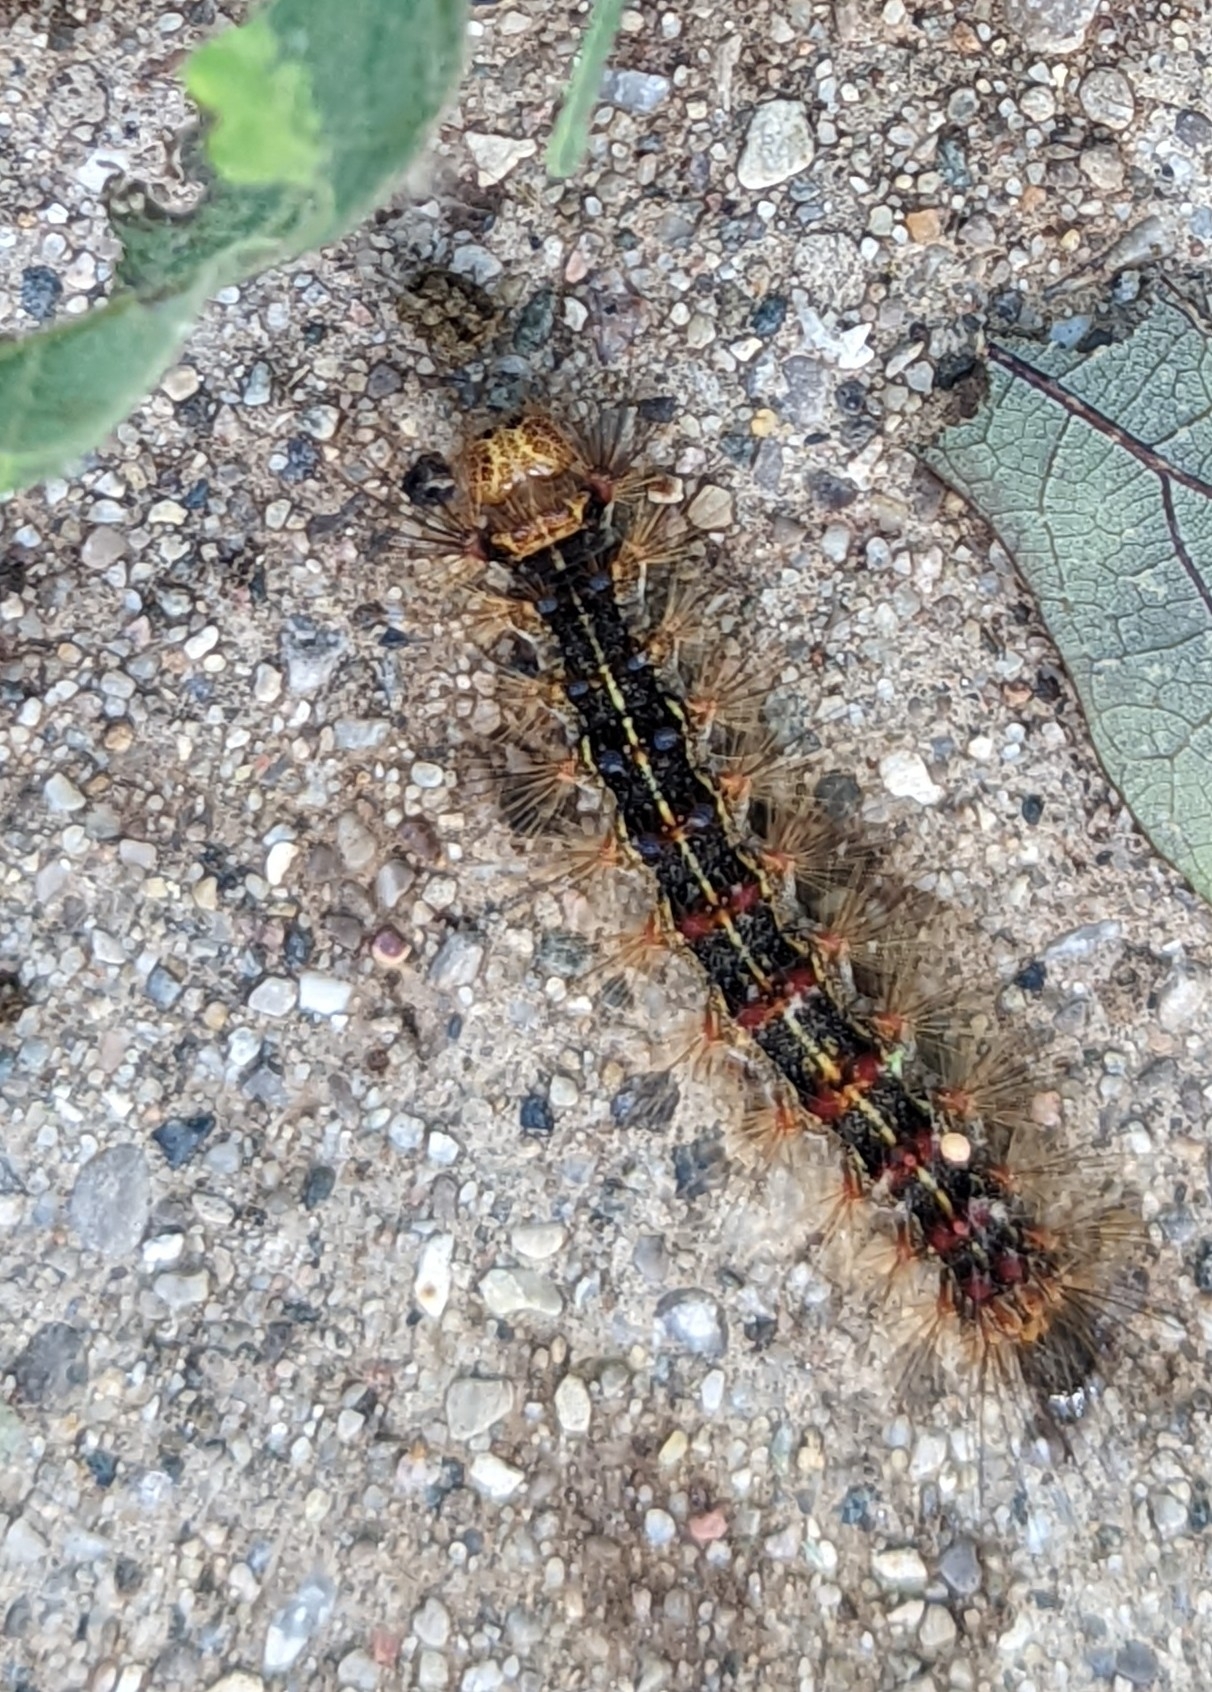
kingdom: Animalia
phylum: Arthropoda
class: Insecta
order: Lepidoptera
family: Erebidae
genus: Lymantria
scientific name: Lymantria dispar
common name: Gypsy moth
